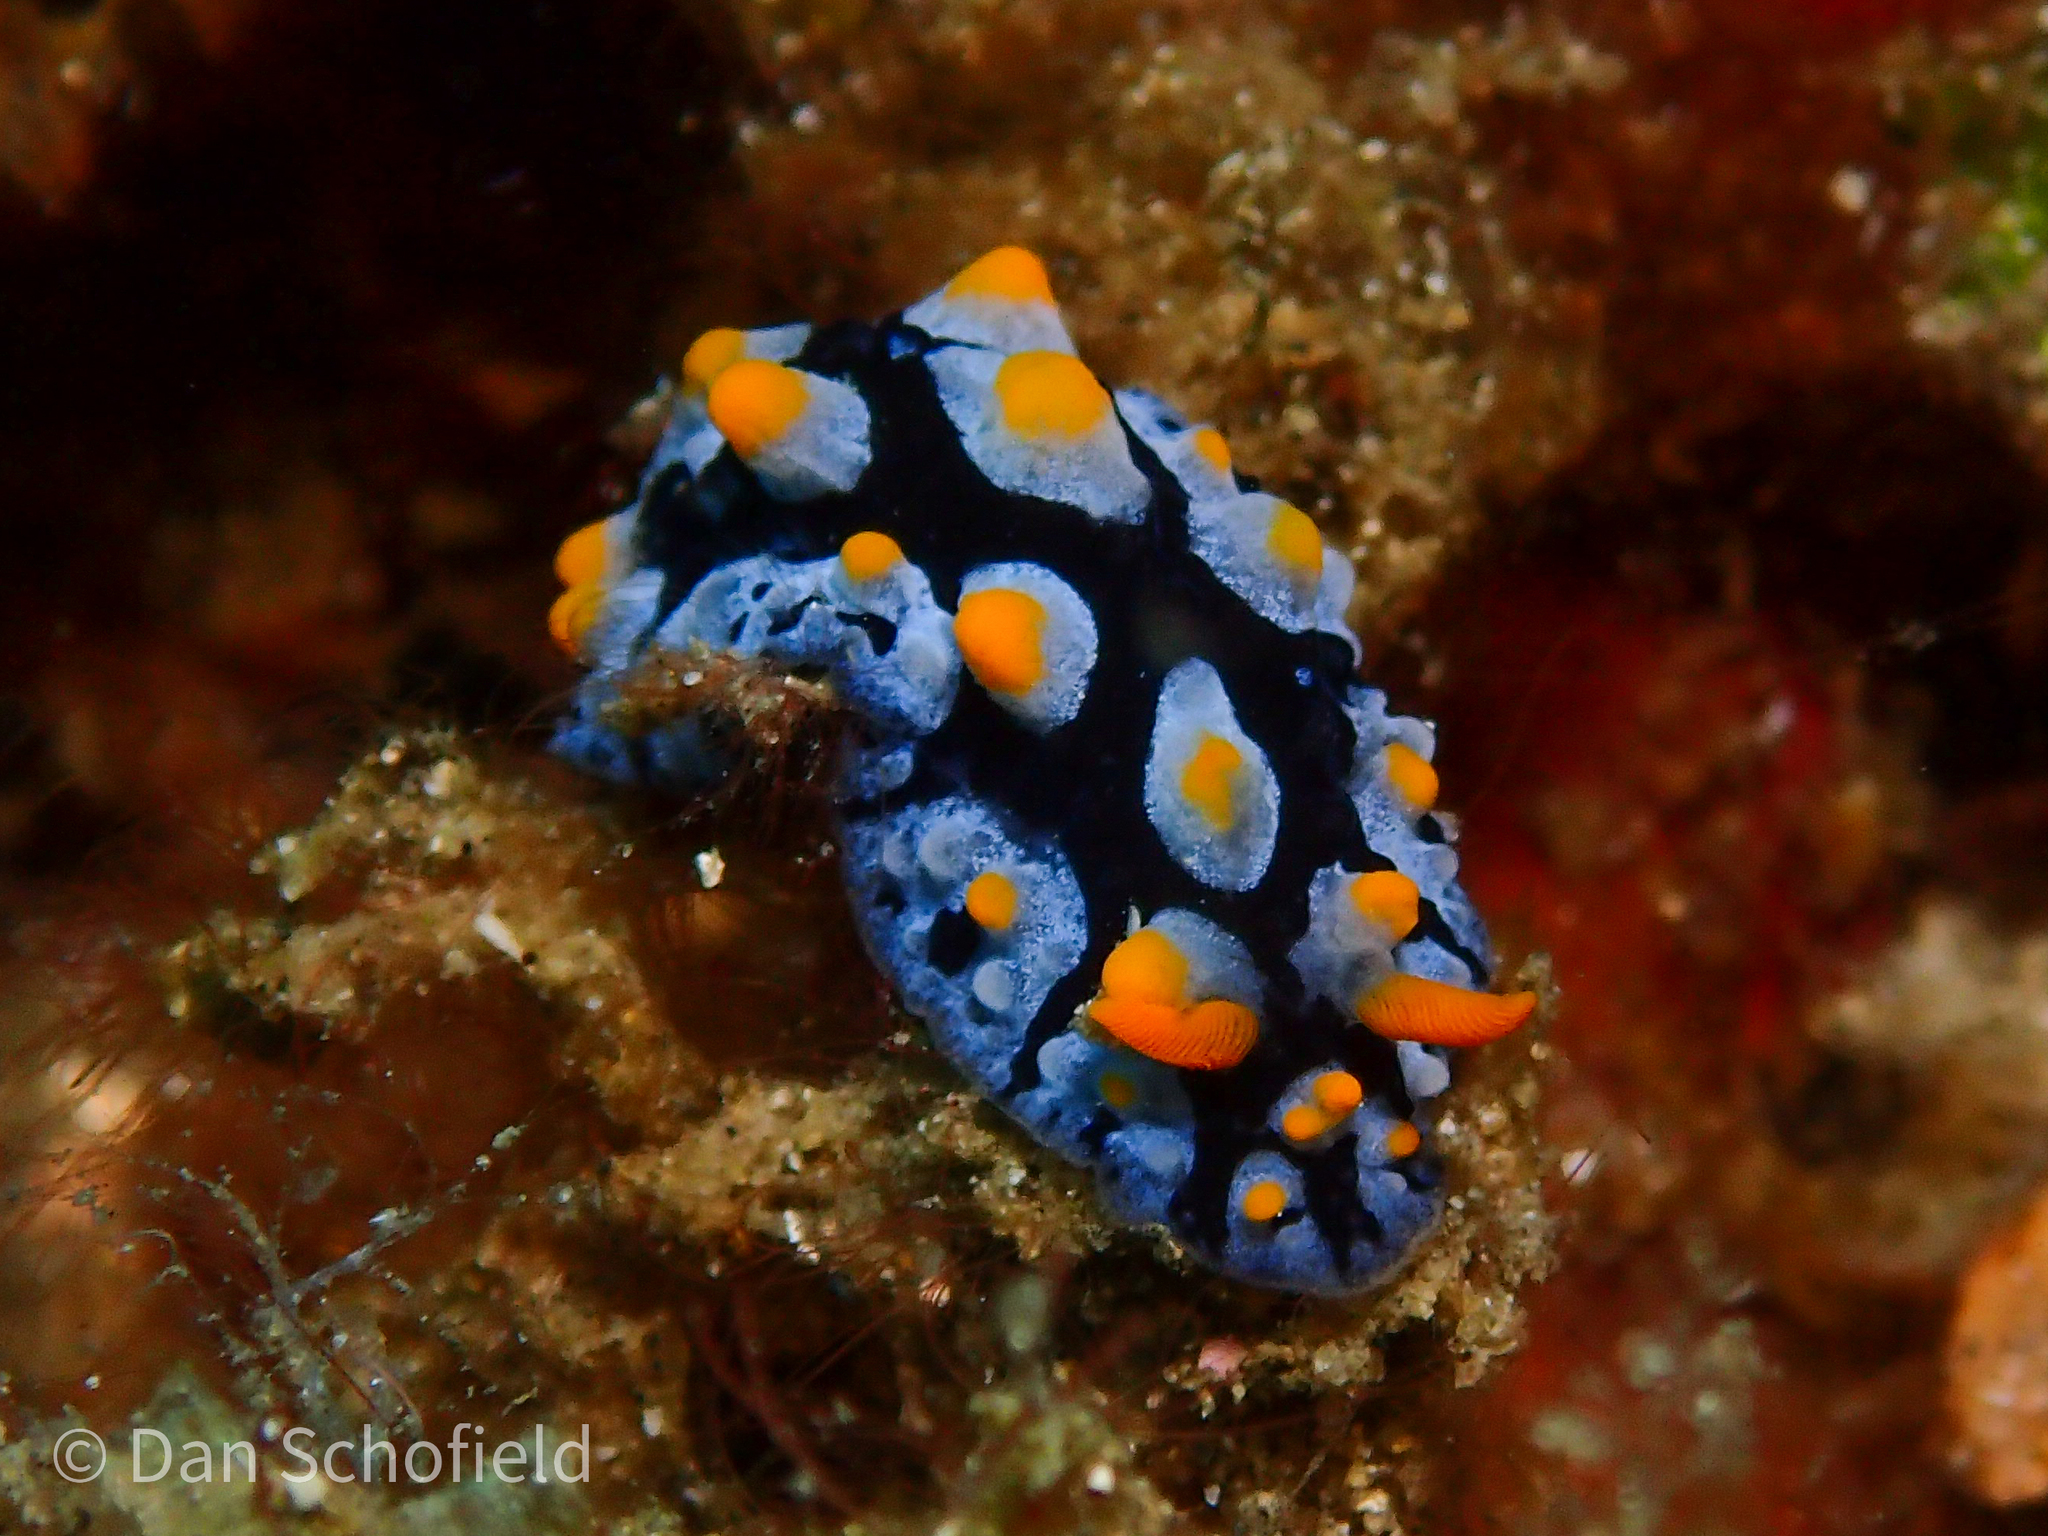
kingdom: Animalia
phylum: Mollusca
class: Gastropoda
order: Nudibranchia
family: Phyllidiidae
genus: Phyllidia
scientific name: Phyllidia picta
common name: Black-rayed phyllidia
